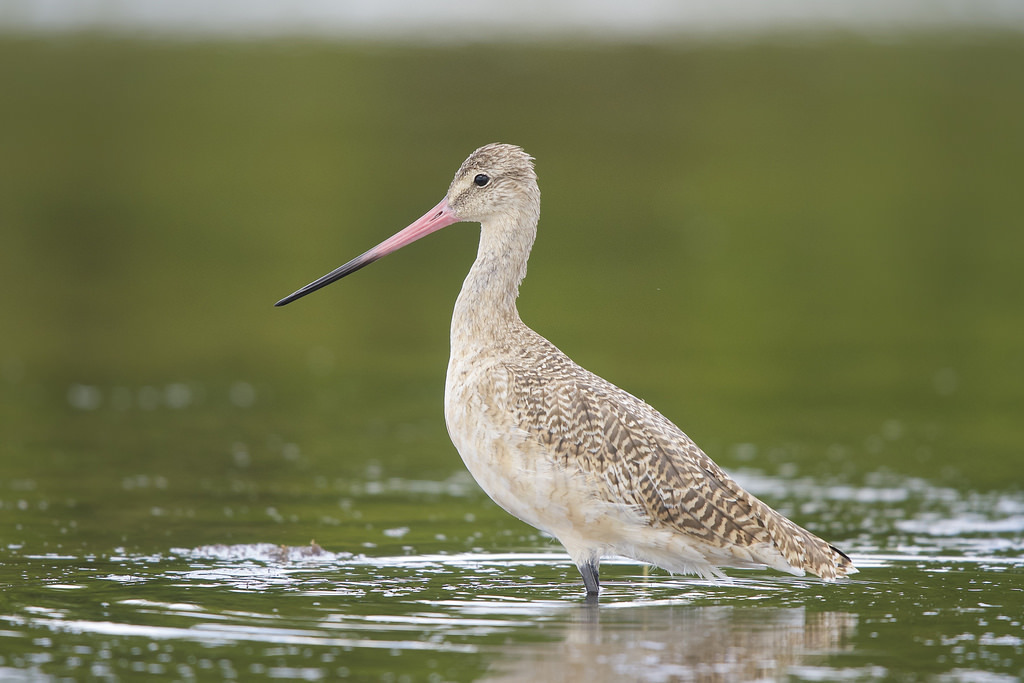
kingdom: Animalia
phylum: Chordata
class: Aves
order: Charadriiformes
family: Scolopacidae
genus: Limosa
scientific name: Limosa fedoa
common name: Marbled godwit
